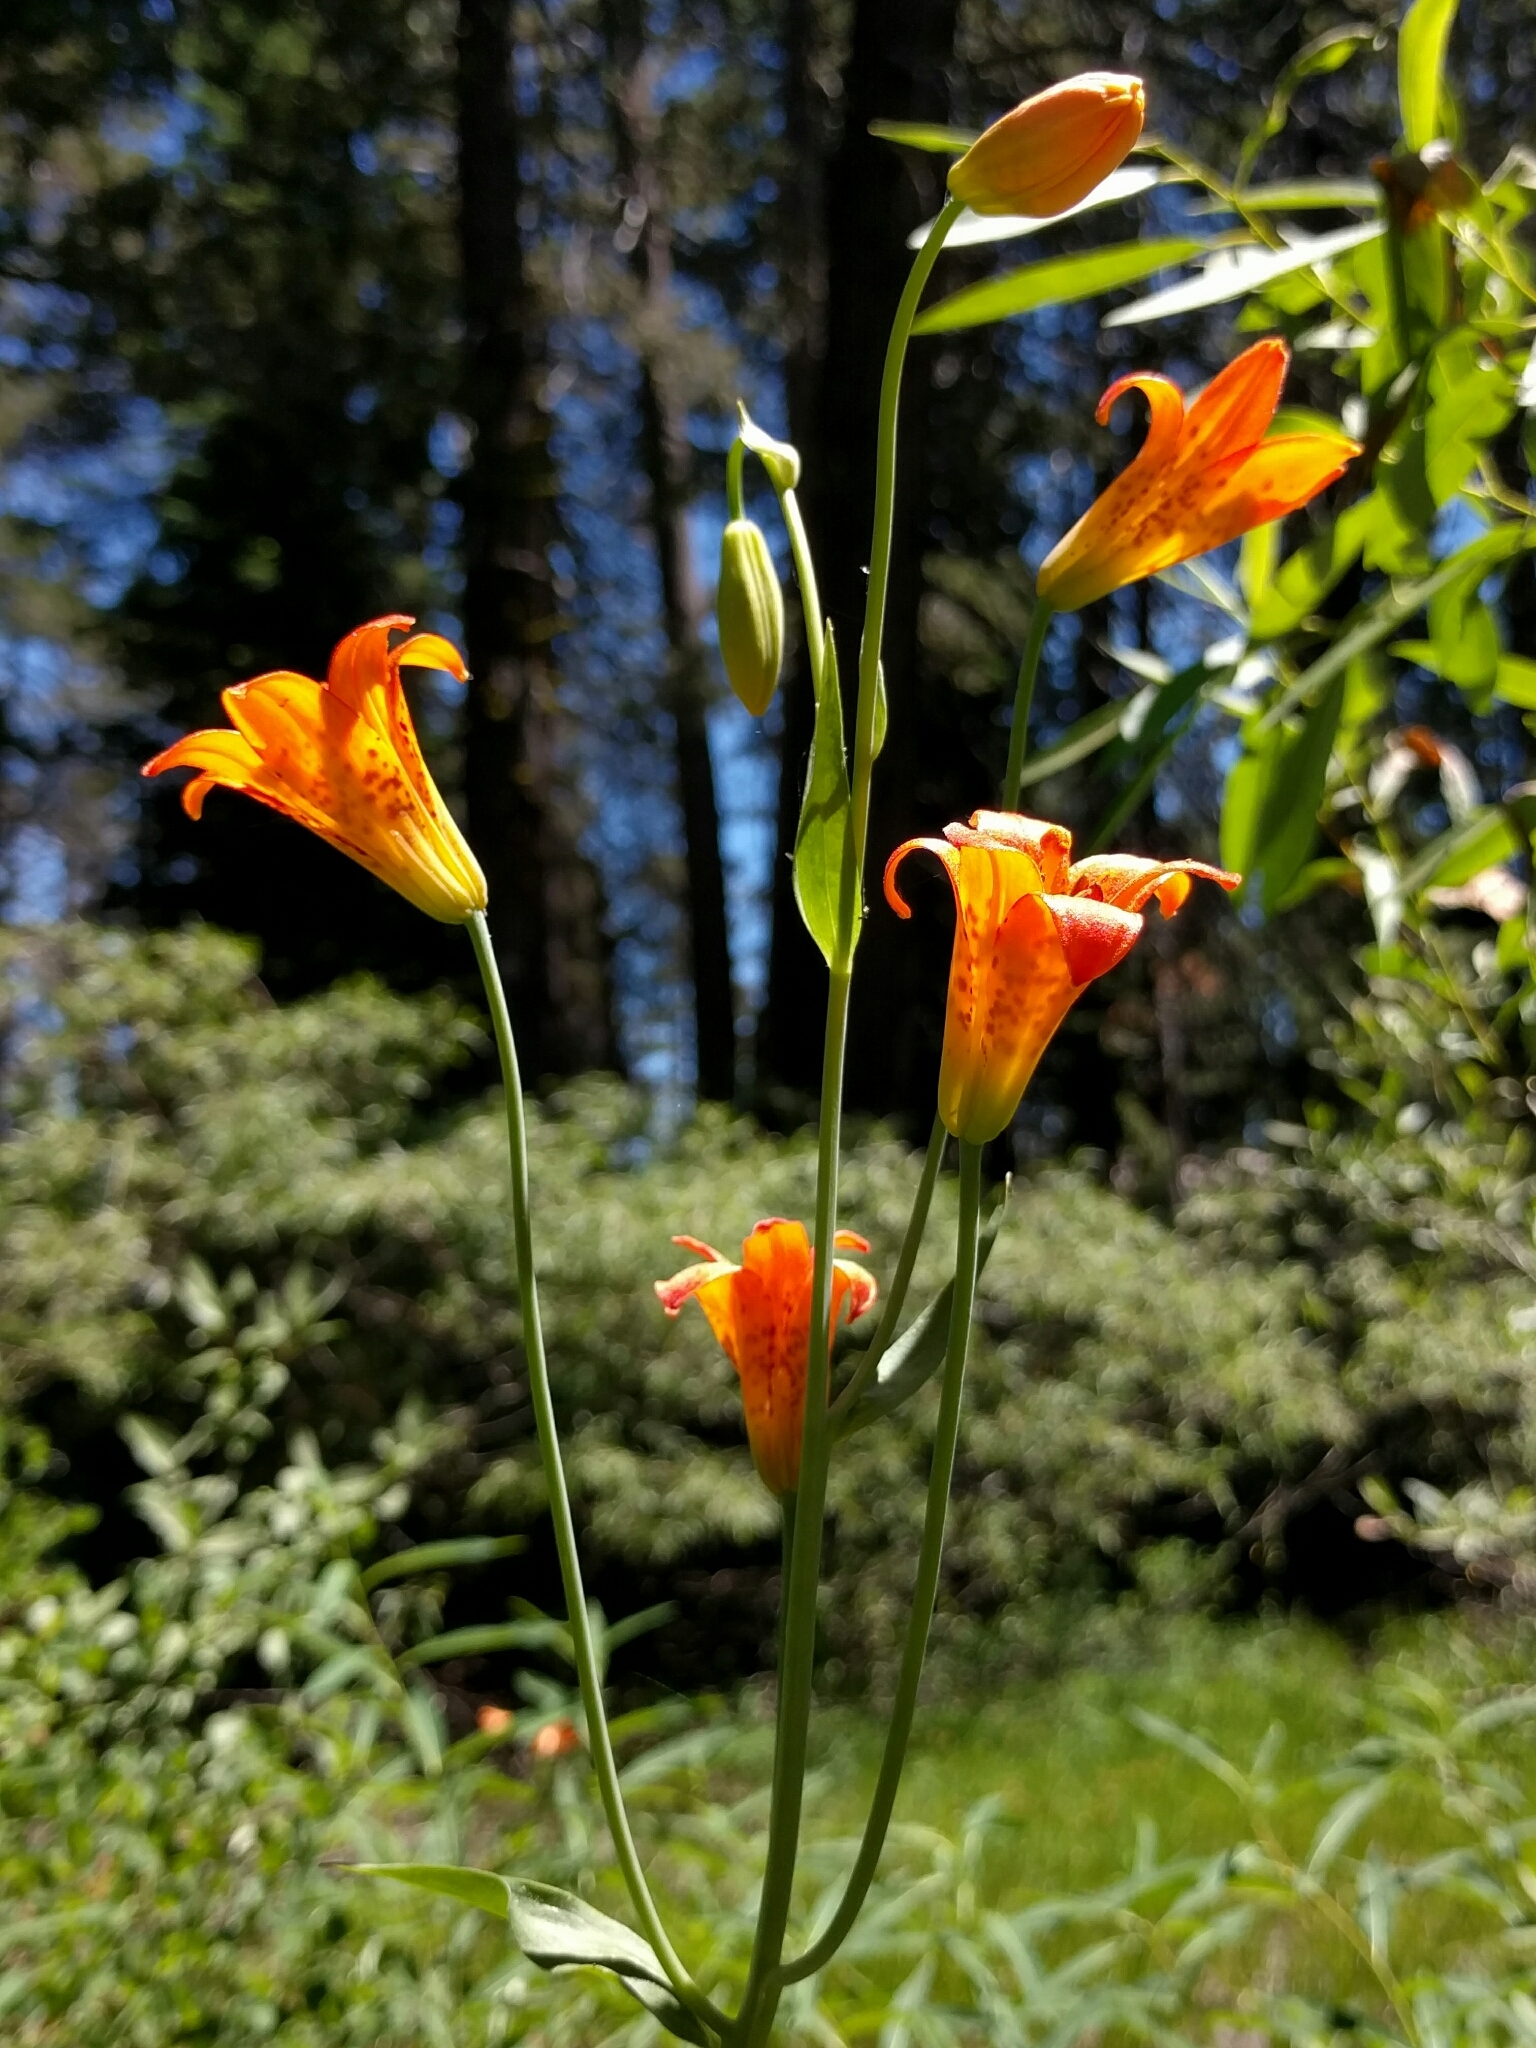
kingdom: Plantae
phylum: Tracheophyta
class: Liliopsida
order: Liliales
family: Liliaceae
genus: Lilium
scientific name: Lilium parvum
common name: Alpine lily
